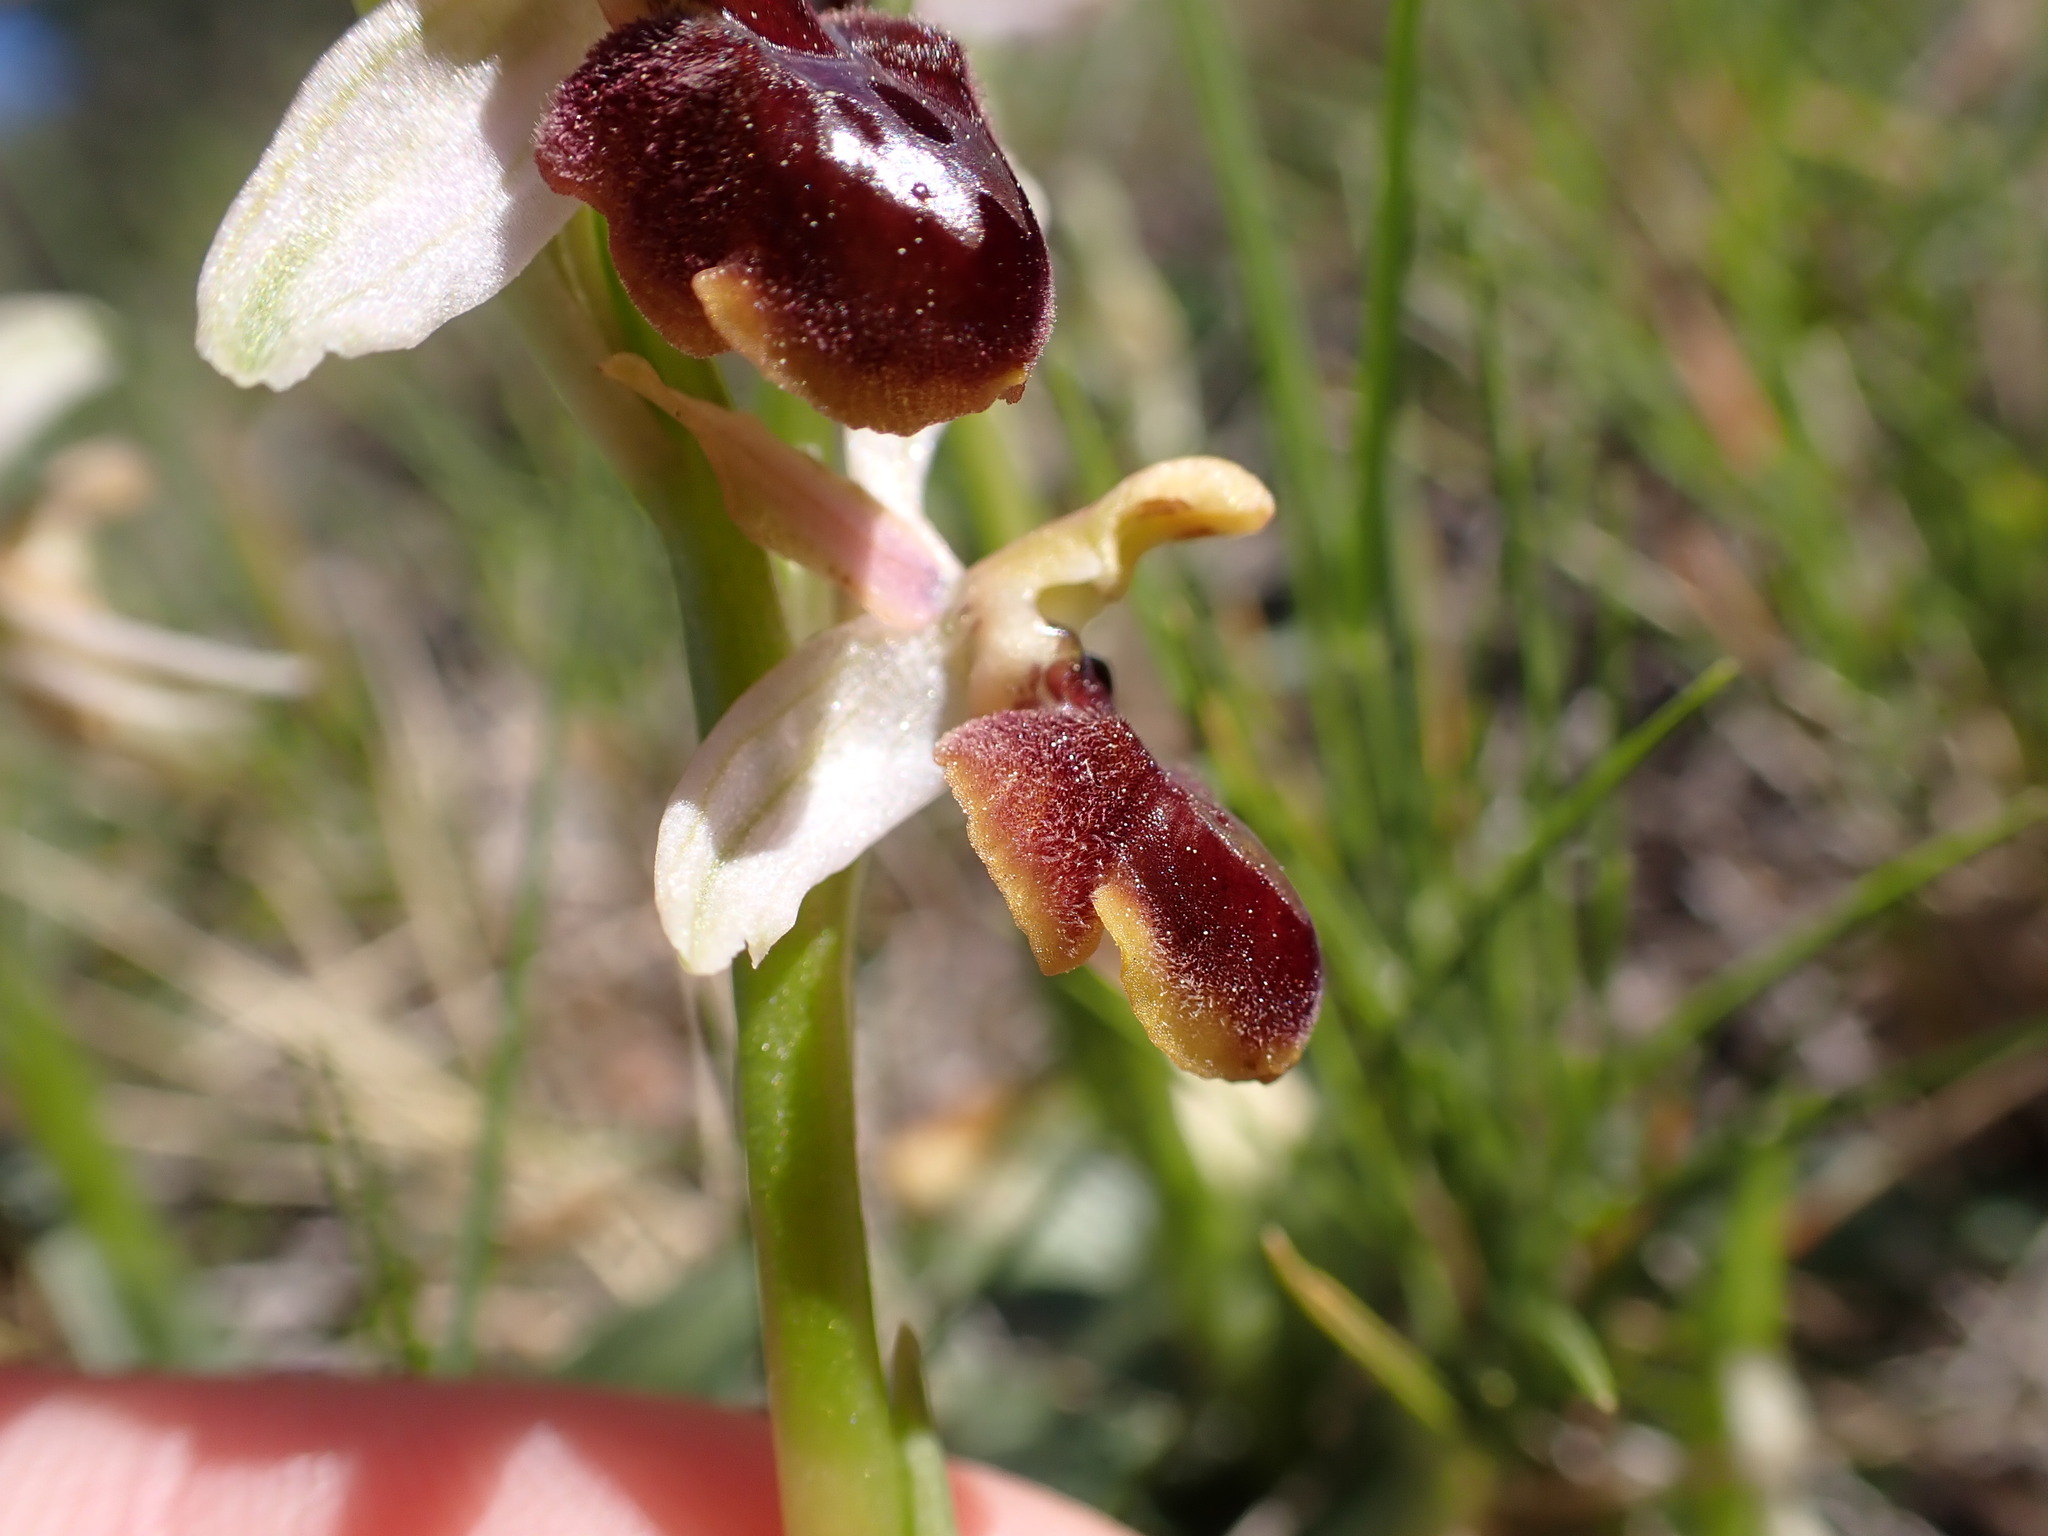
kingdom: Plantae
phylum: Tracheophyta
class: Liliopsida
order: Asparagales
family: Orchidaceae
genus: Ophrys
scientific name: Ophrys arachnitiformis
